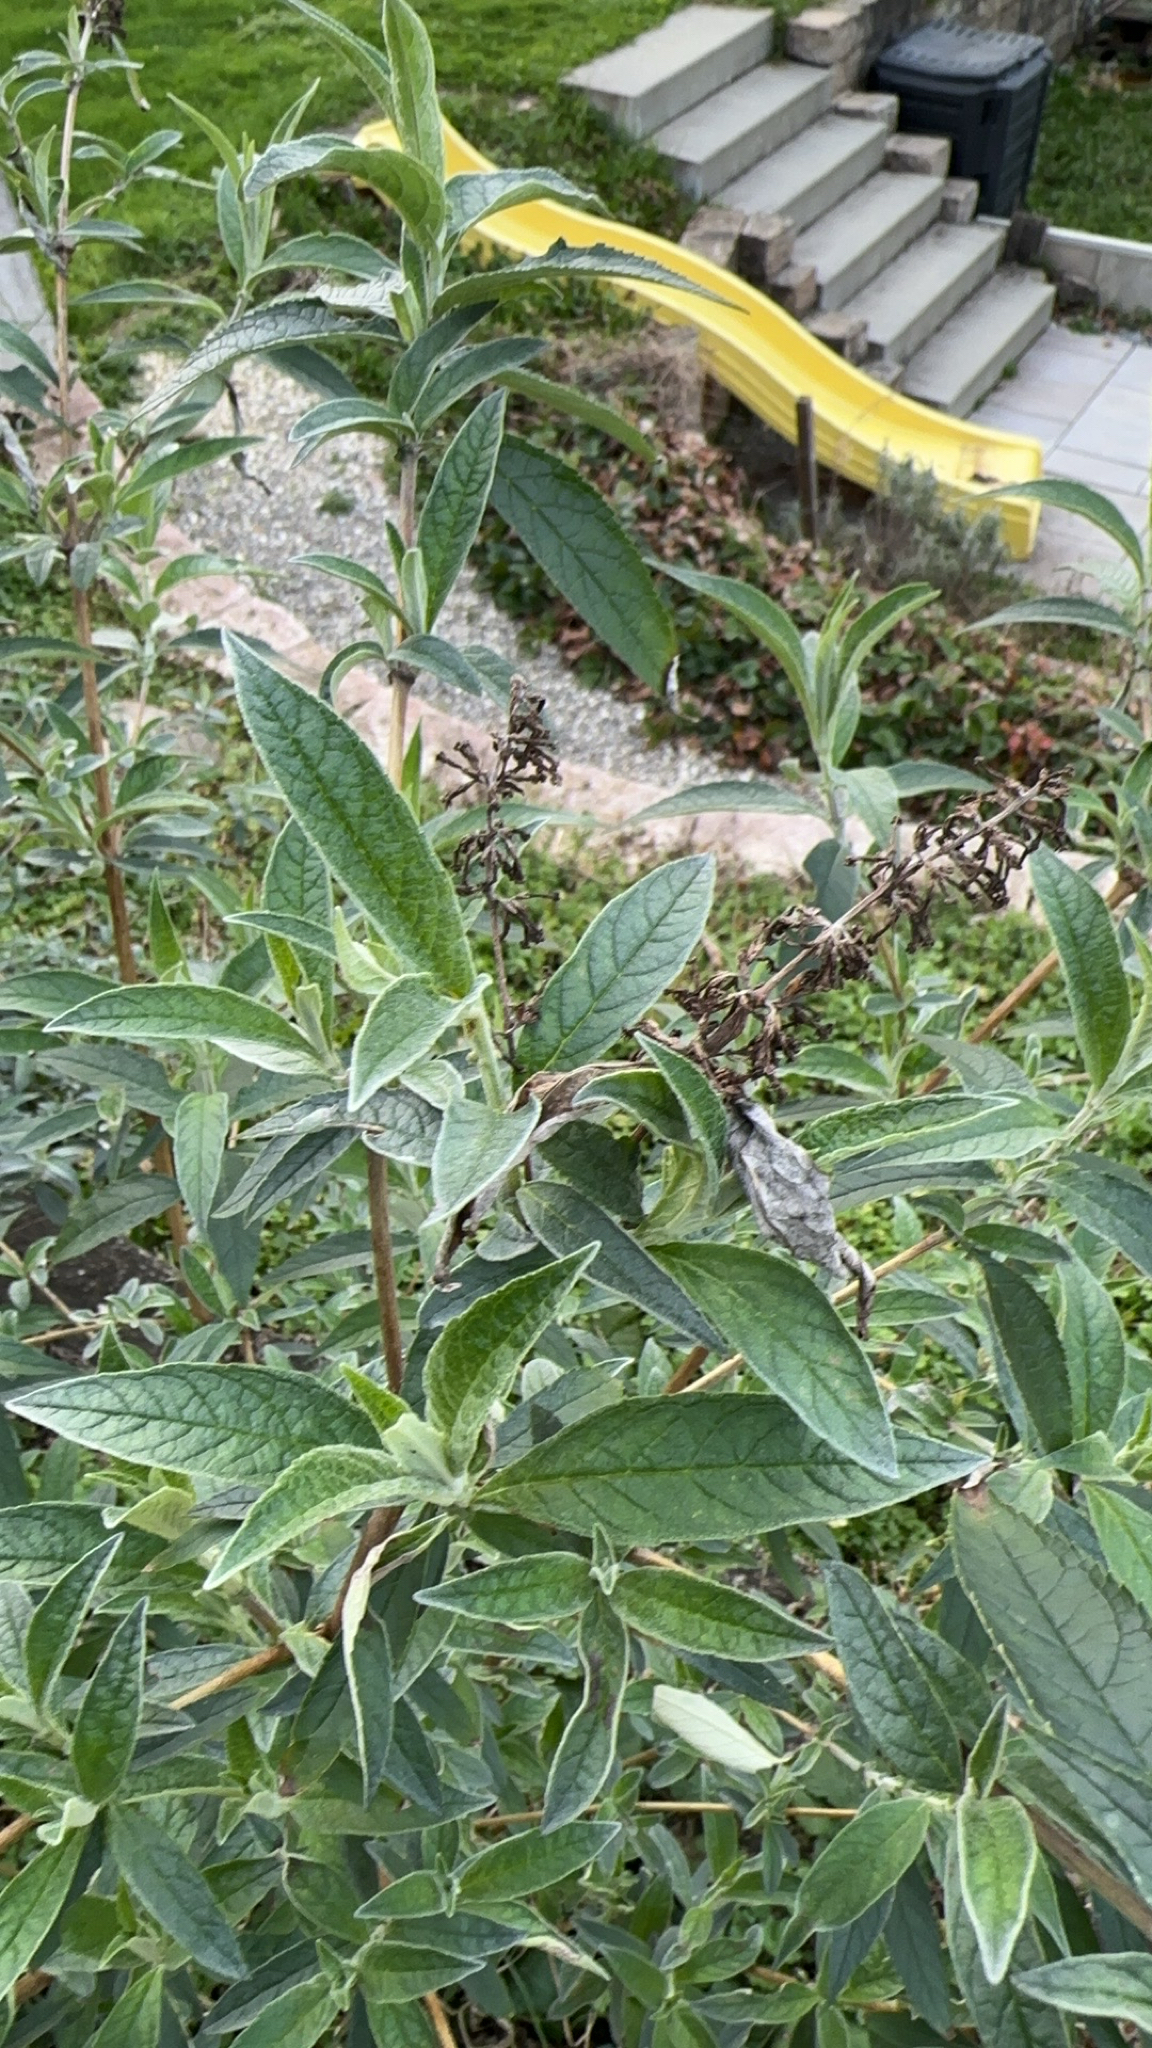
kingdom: Plantae
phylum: Tracheophyta
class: Magnoliopsida
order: Lamiales
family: Scrophulariaceae
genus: Buddleja
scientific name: Buddleja davidii
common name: Butterfly-bush
